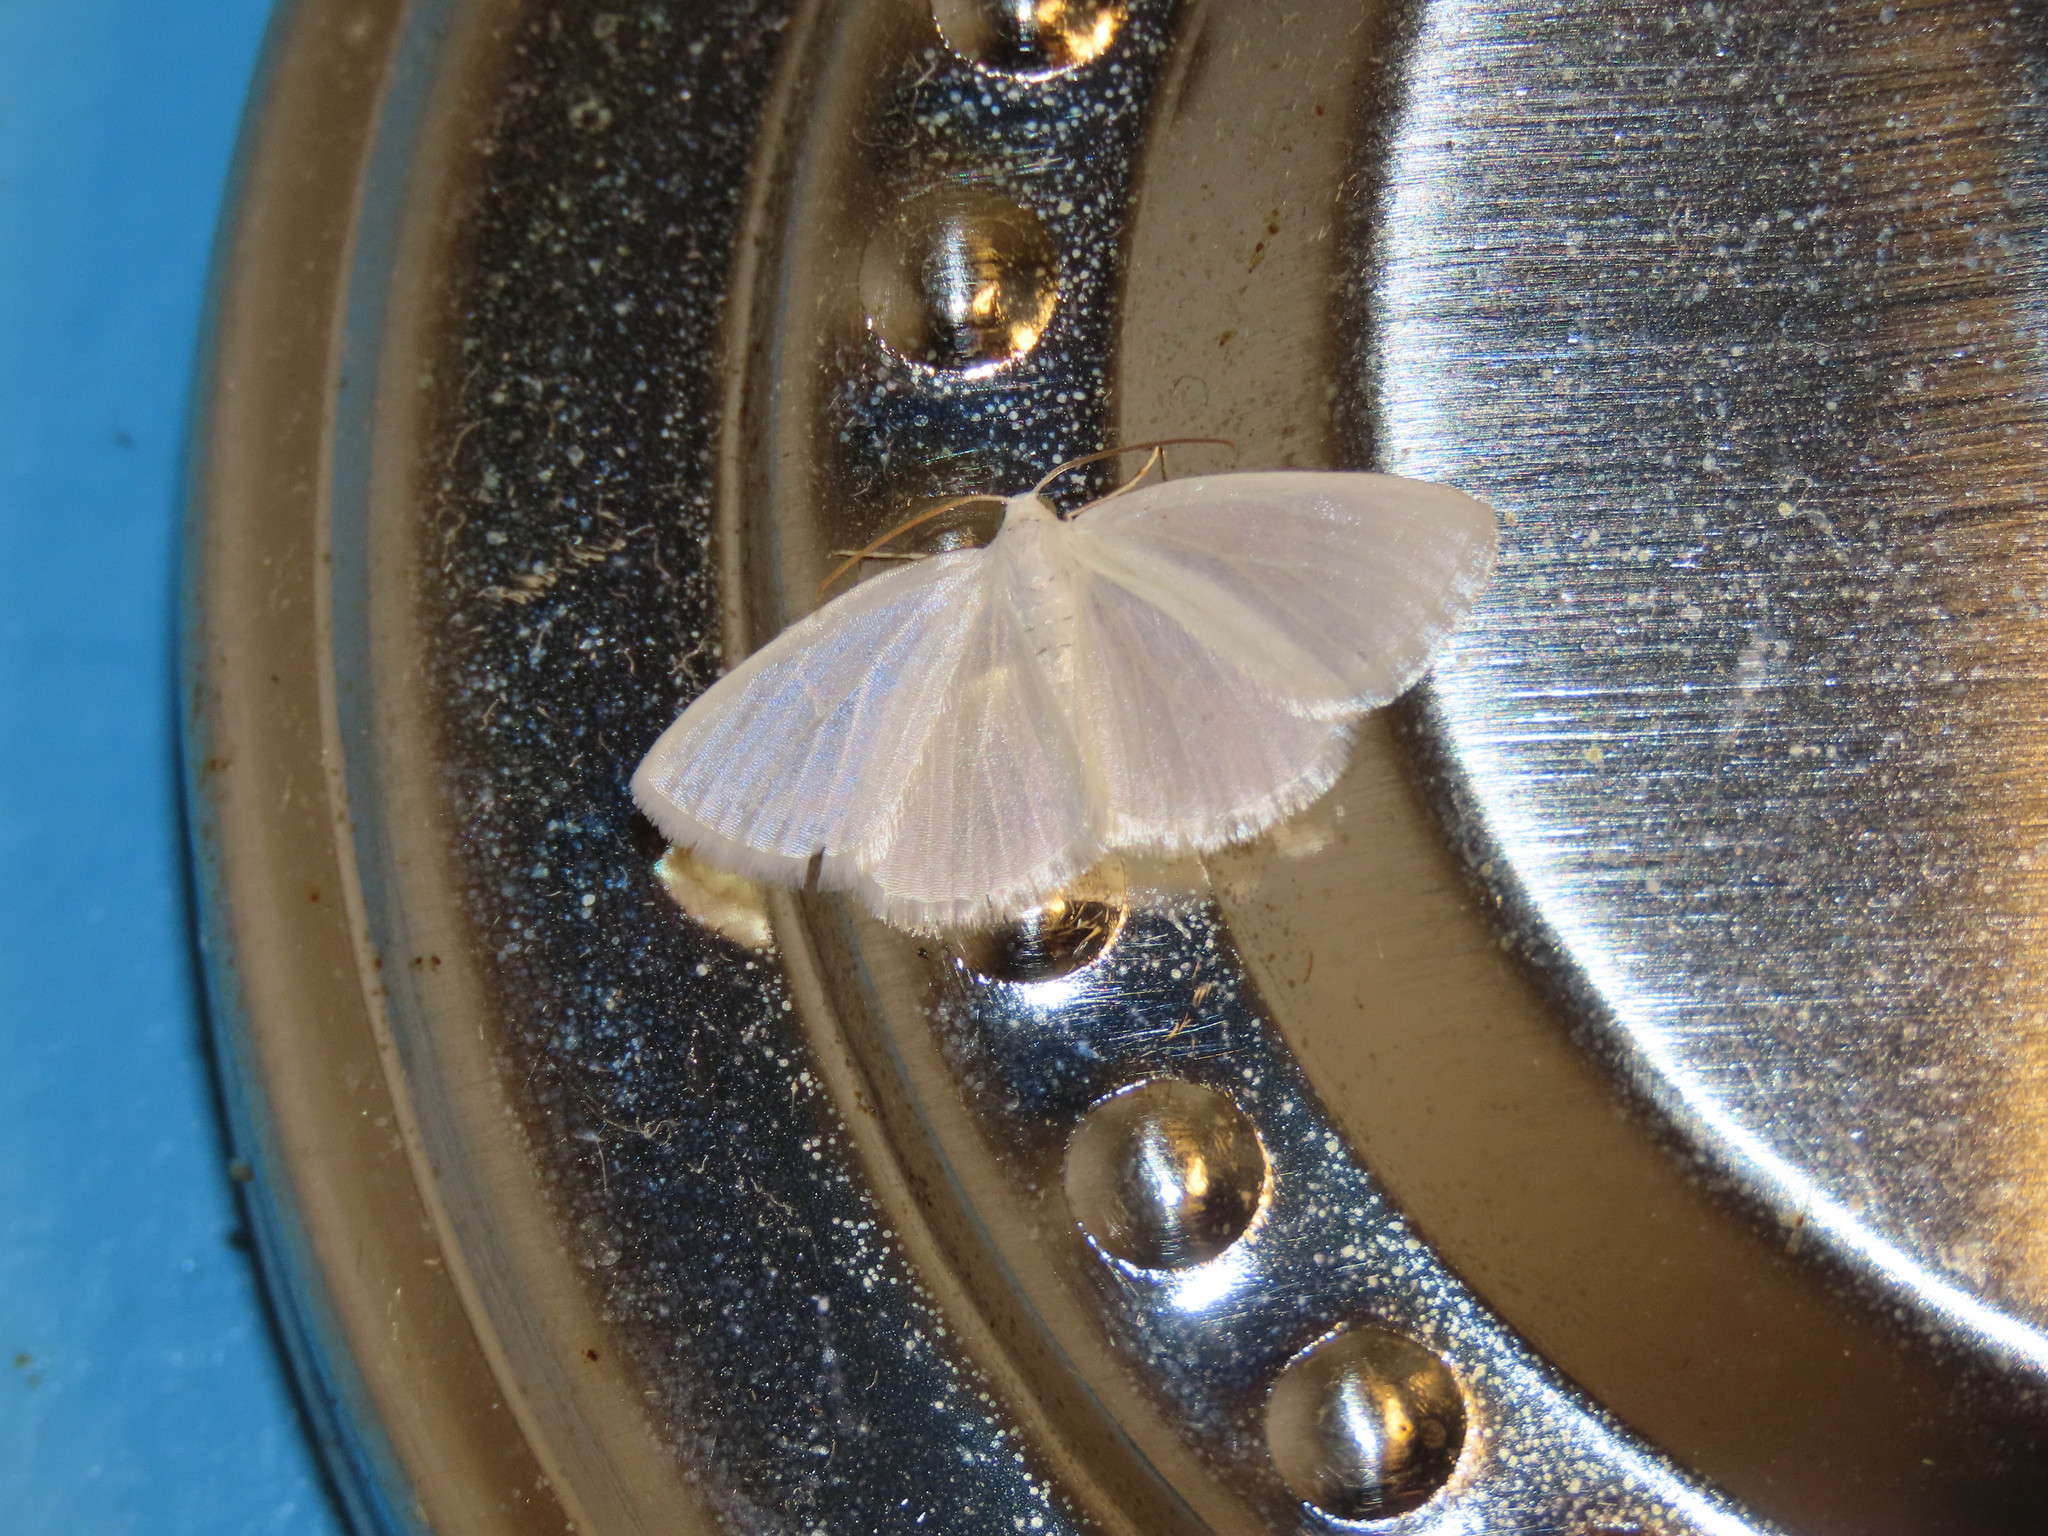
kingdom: Animalia
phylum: Arthropoda
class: Insecta
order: Lepidoptera
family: Geometridae
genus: Lomographa
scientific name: Lomographa vestaliata
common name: White spring moth
